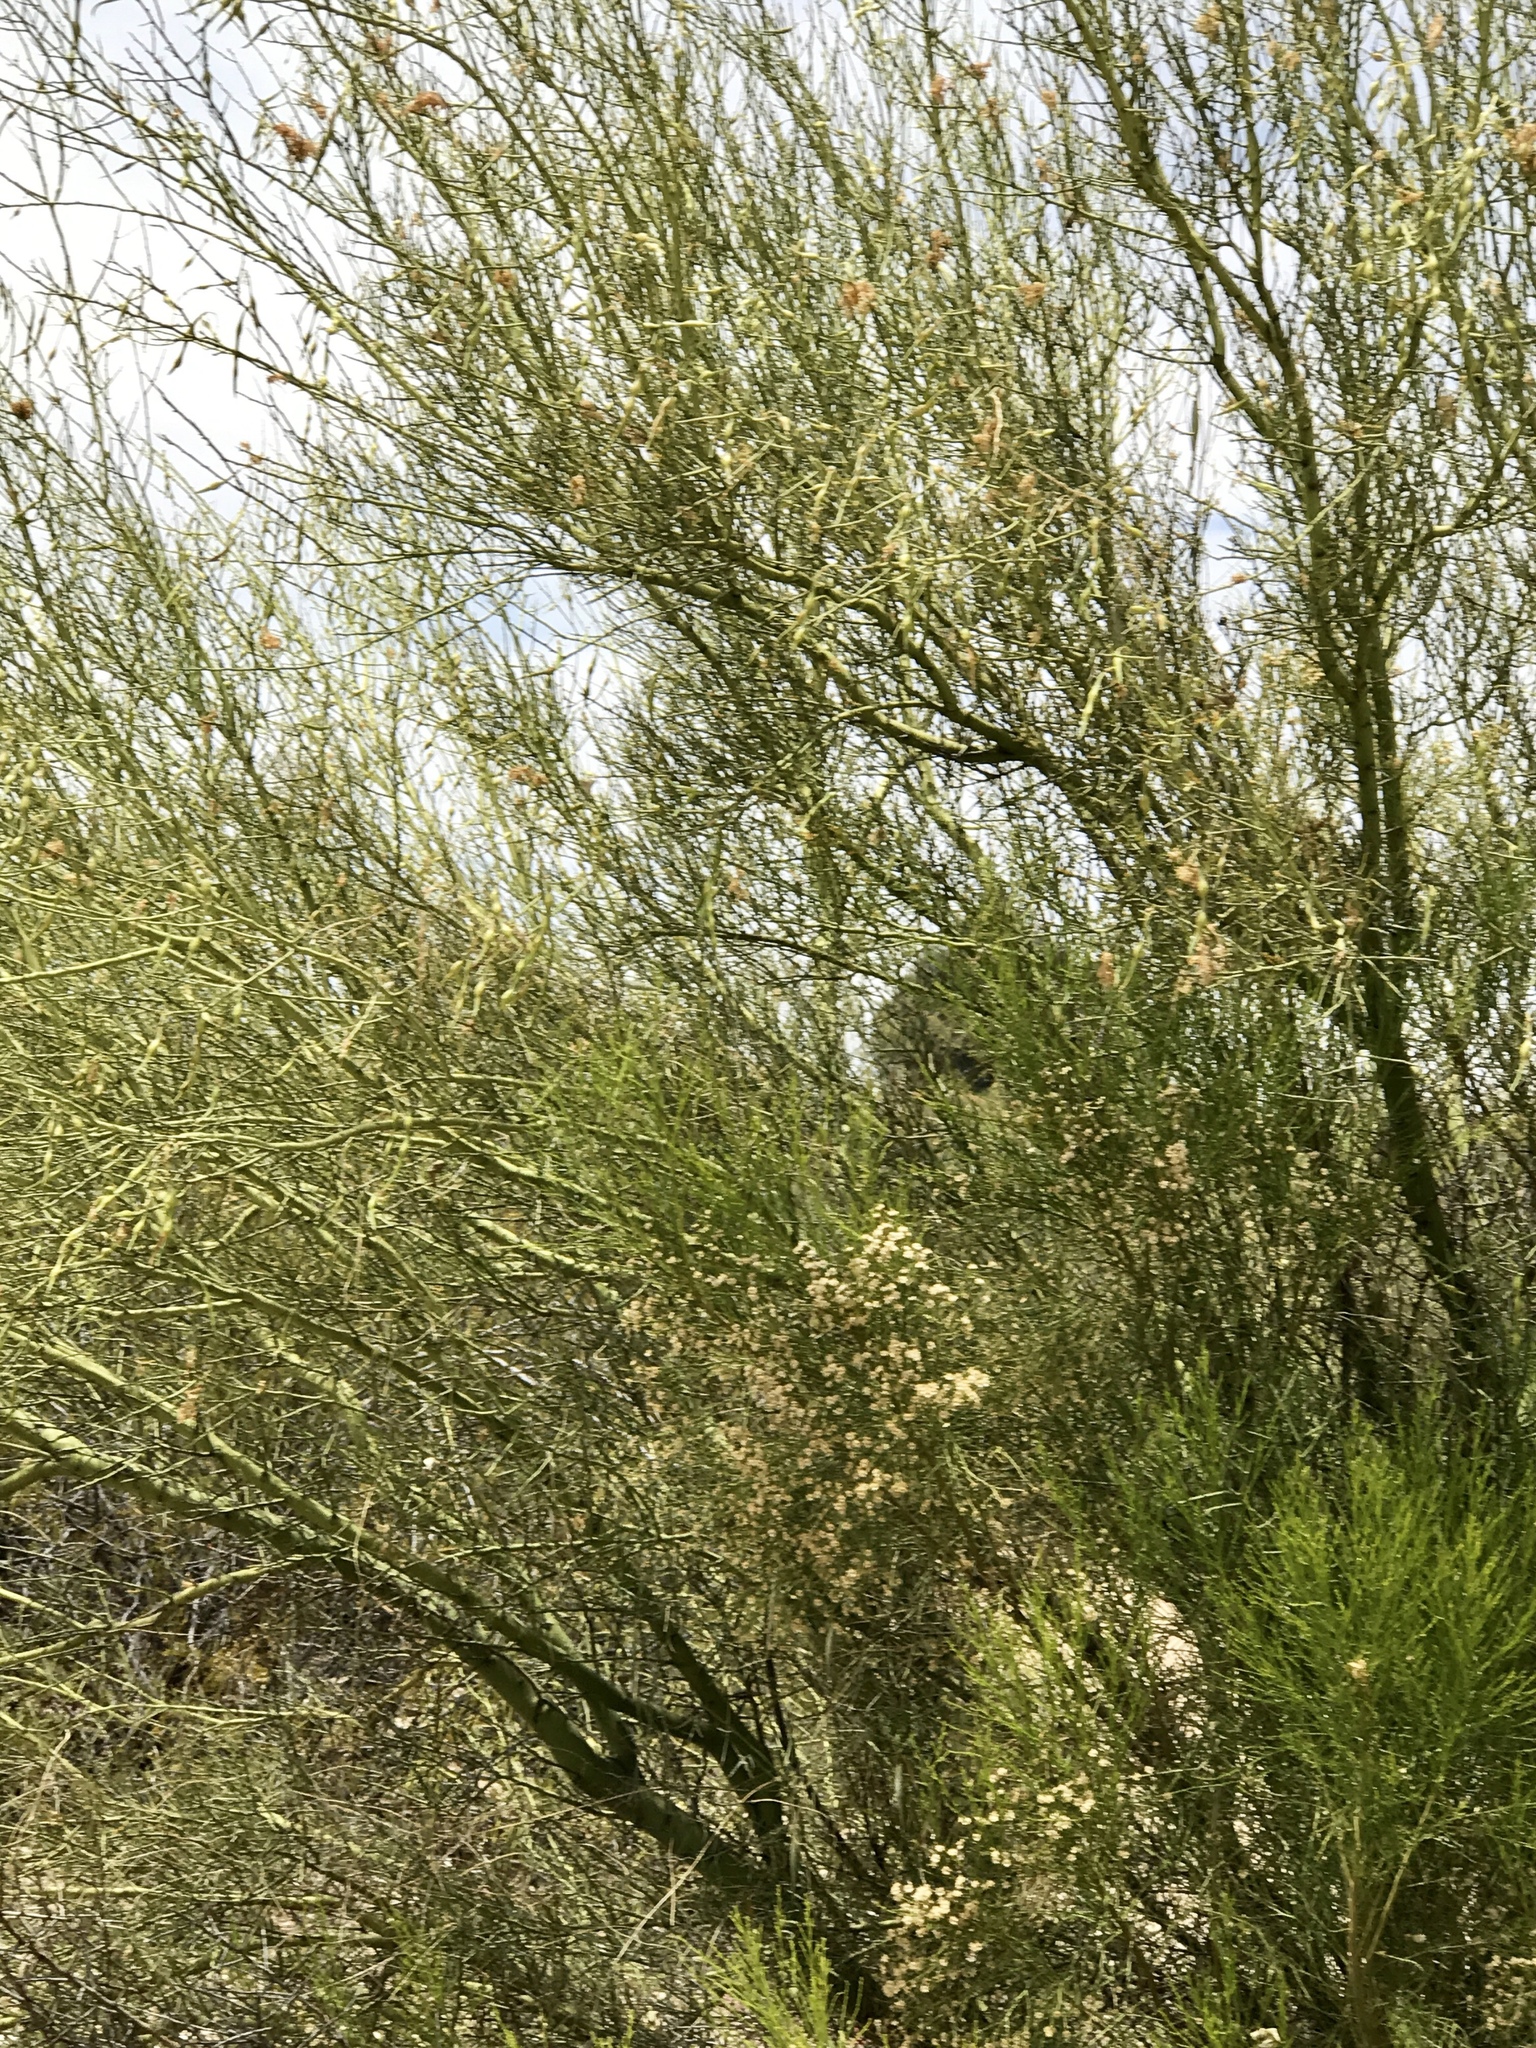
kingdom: Plantae
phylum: Tracheophyta
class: Magnoliopsida
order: Fabales
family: Fabaceae
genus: Parkinsonia
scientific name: Parkinsonia microphylla
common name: Yellow paloverde
